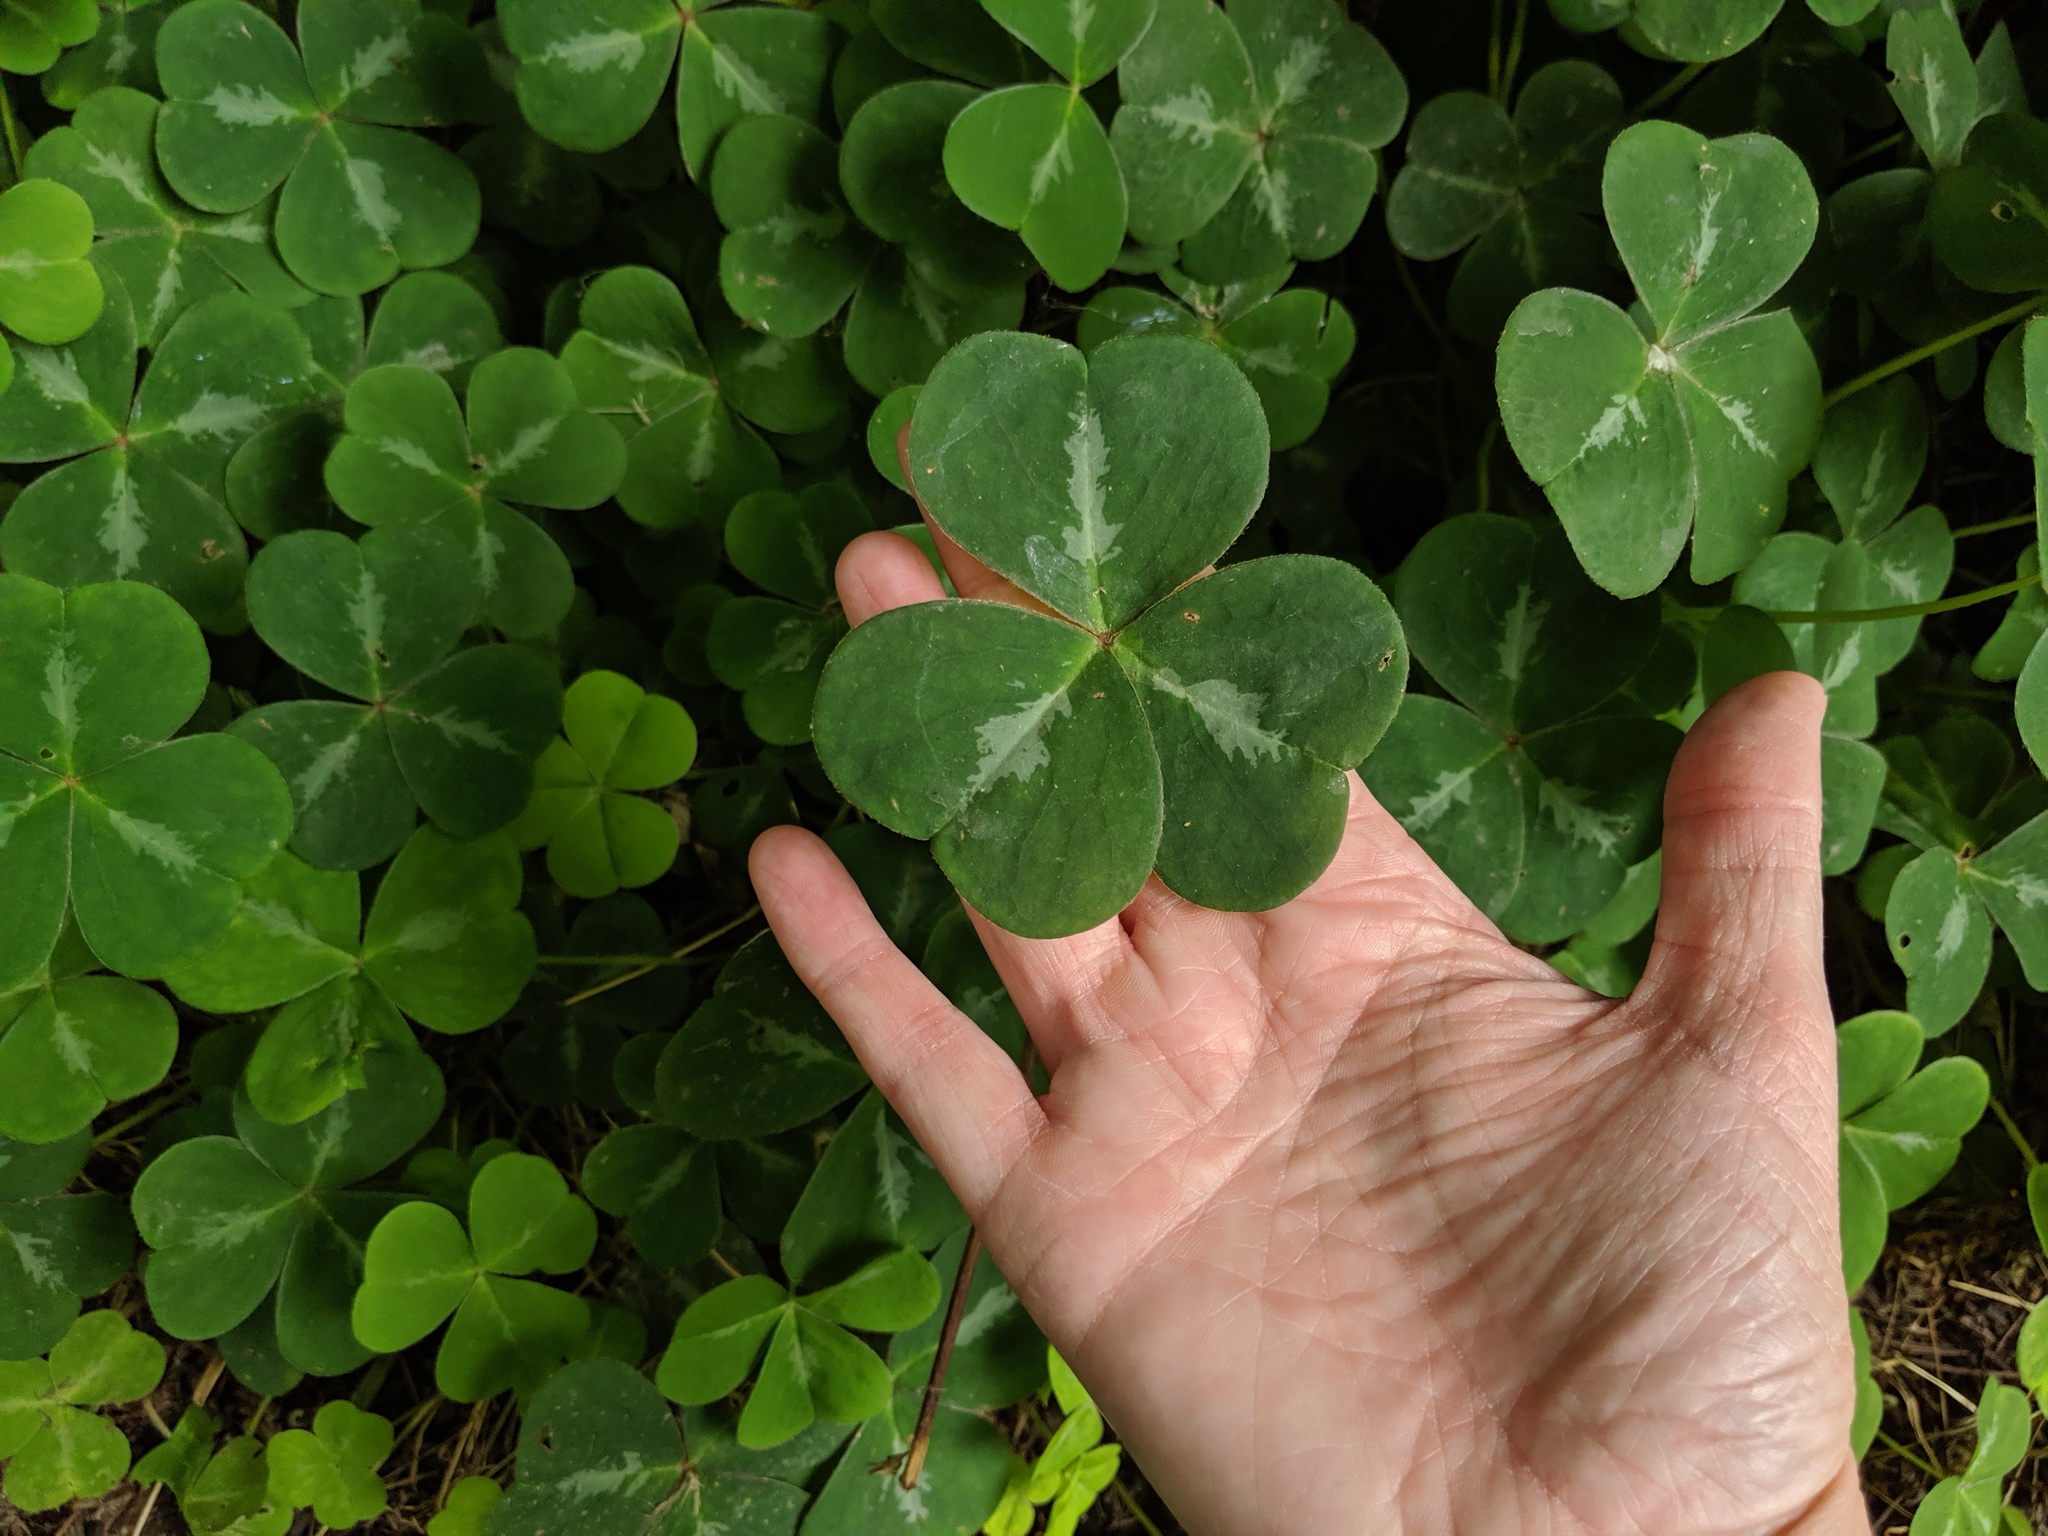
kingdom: Plantae
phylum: Tracheophyta
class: Magnoliopsida
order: Oxalidales
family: Oxalidaceae
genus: Oxalis
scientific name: Oxalis oregana
